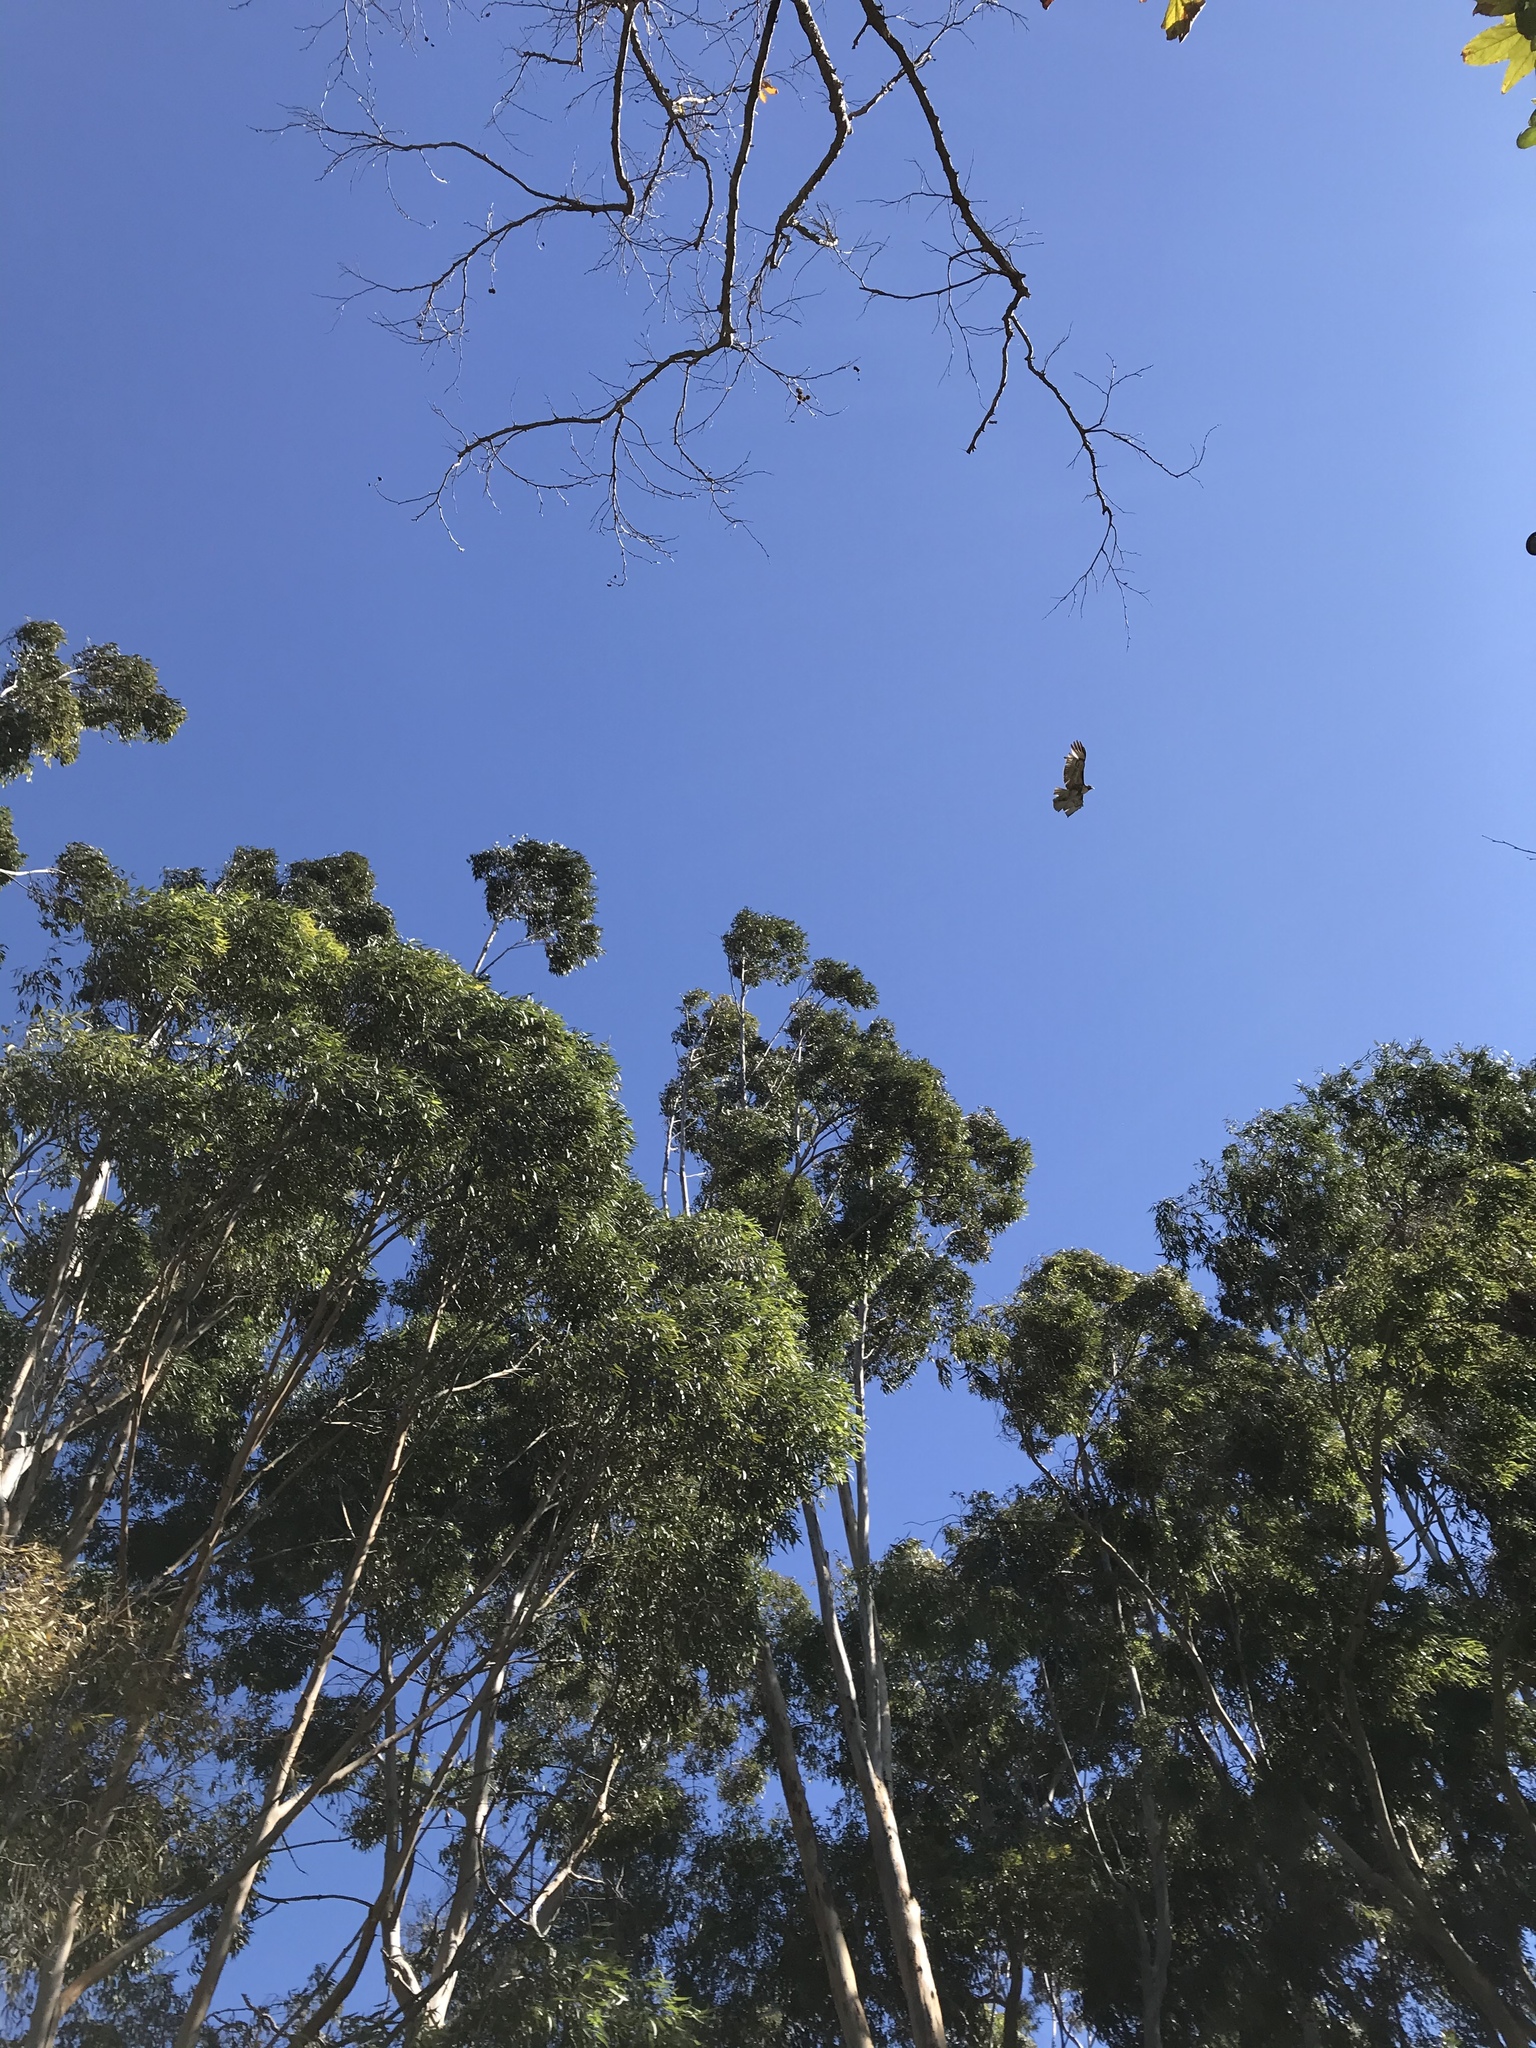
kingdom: Animalia
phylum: Chordata
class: Aves
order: Accipitriformes
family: Accipitridae
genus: Buteo
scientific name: Buteo jamaicensis
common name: Red-tailed hawk
